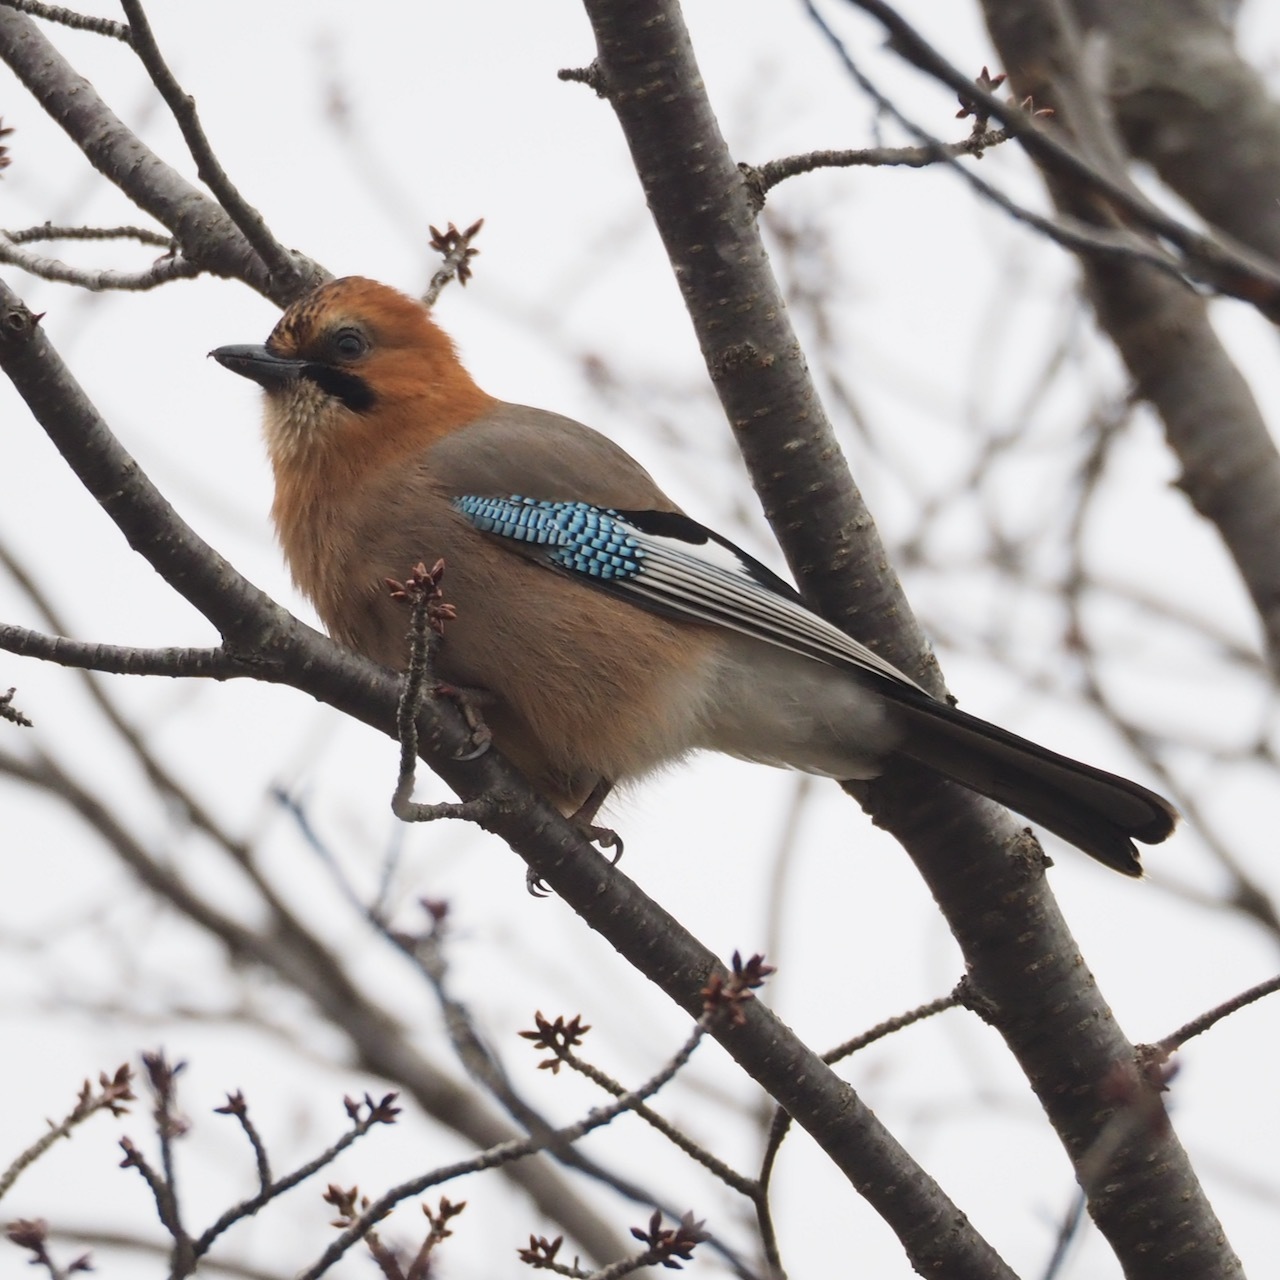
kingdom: Animalia
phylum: Chordata
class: Aves
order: Passeriformes
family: Corvidae
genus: Garrulus
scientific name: Garrulus glandarius
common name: Eurasian jay
